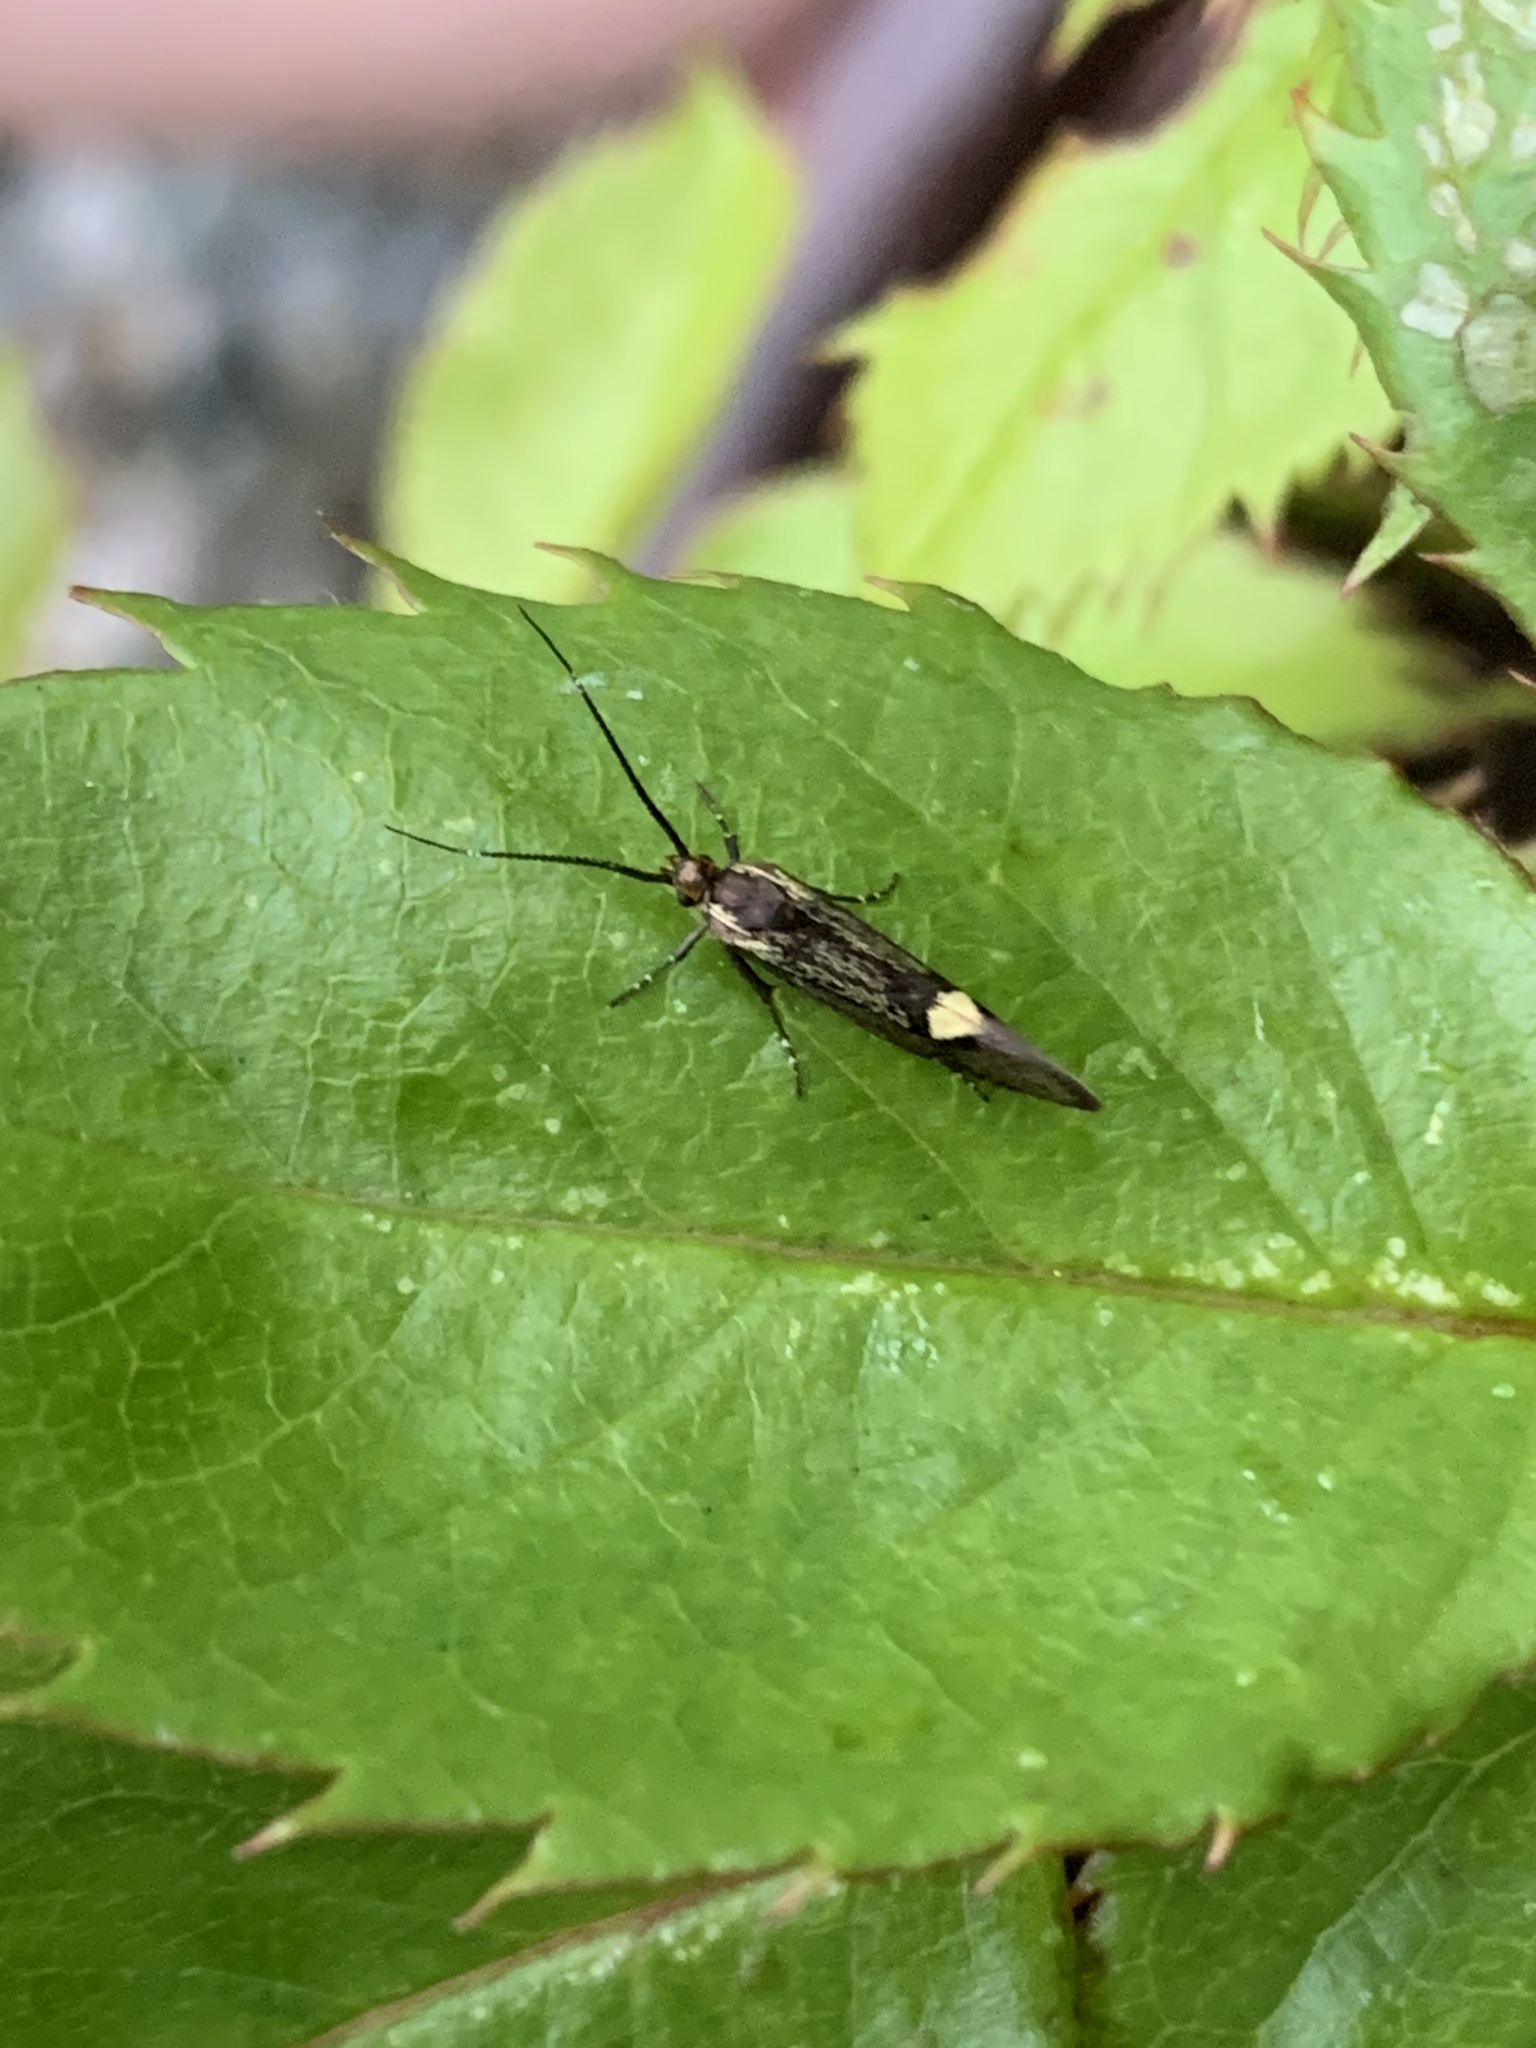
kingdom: Animalia
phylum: Arthropoda
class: Insecta
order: Lepidoptera
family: Oecophoridae
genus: Dafa
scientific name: Dafa Esperia sulphurella
